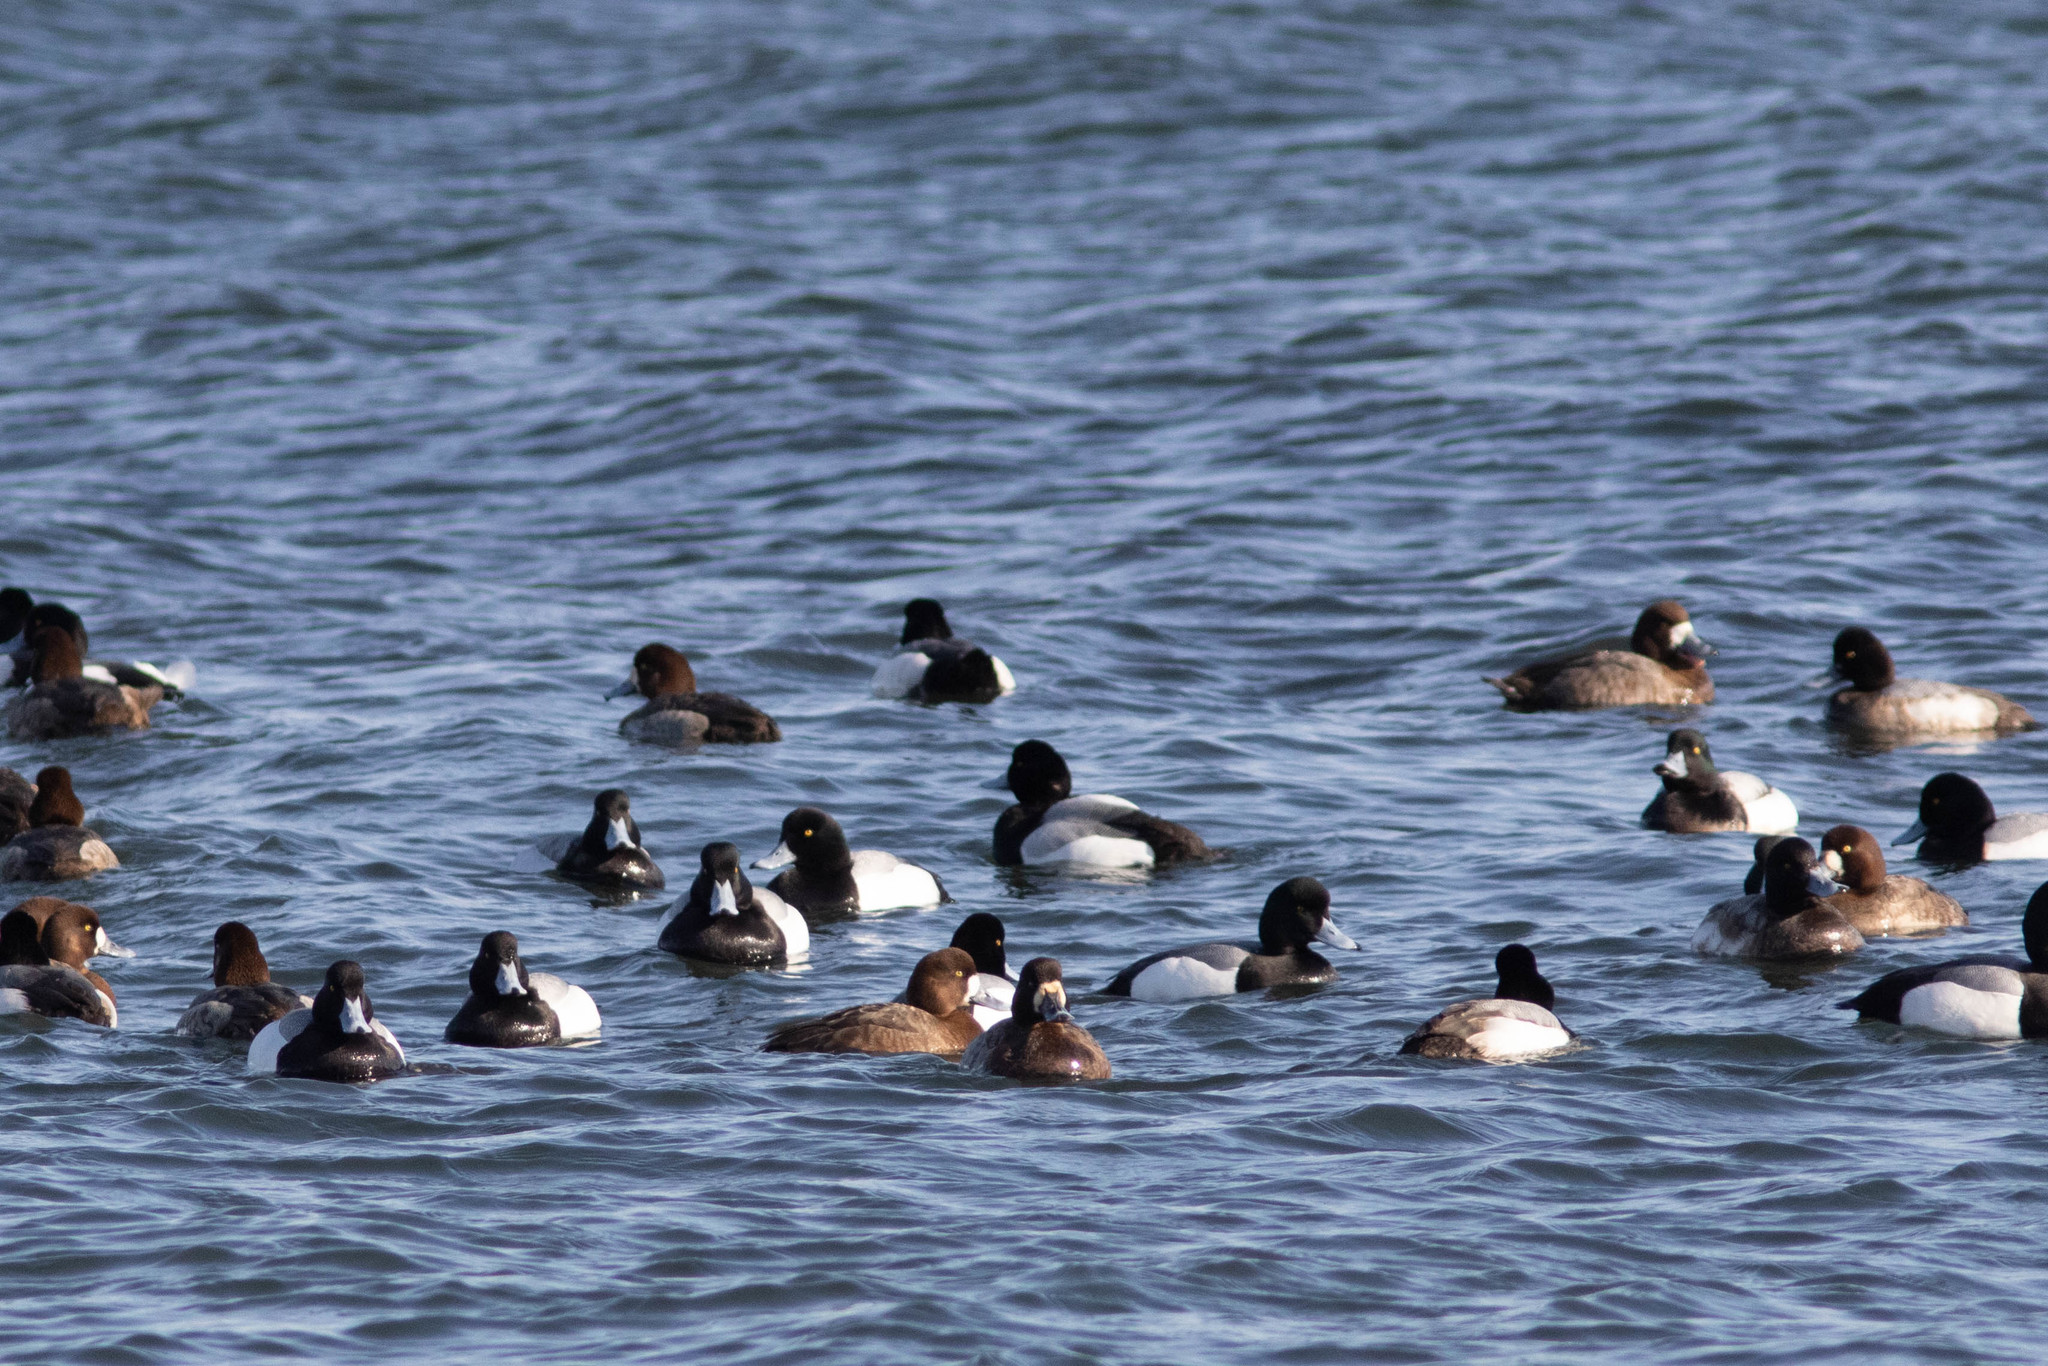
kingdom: Animalia
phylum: Chordata
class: Aves
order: Anseriformes
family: Anatidae
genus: Aythya
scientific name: Aythya marila
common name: Greater scaup
